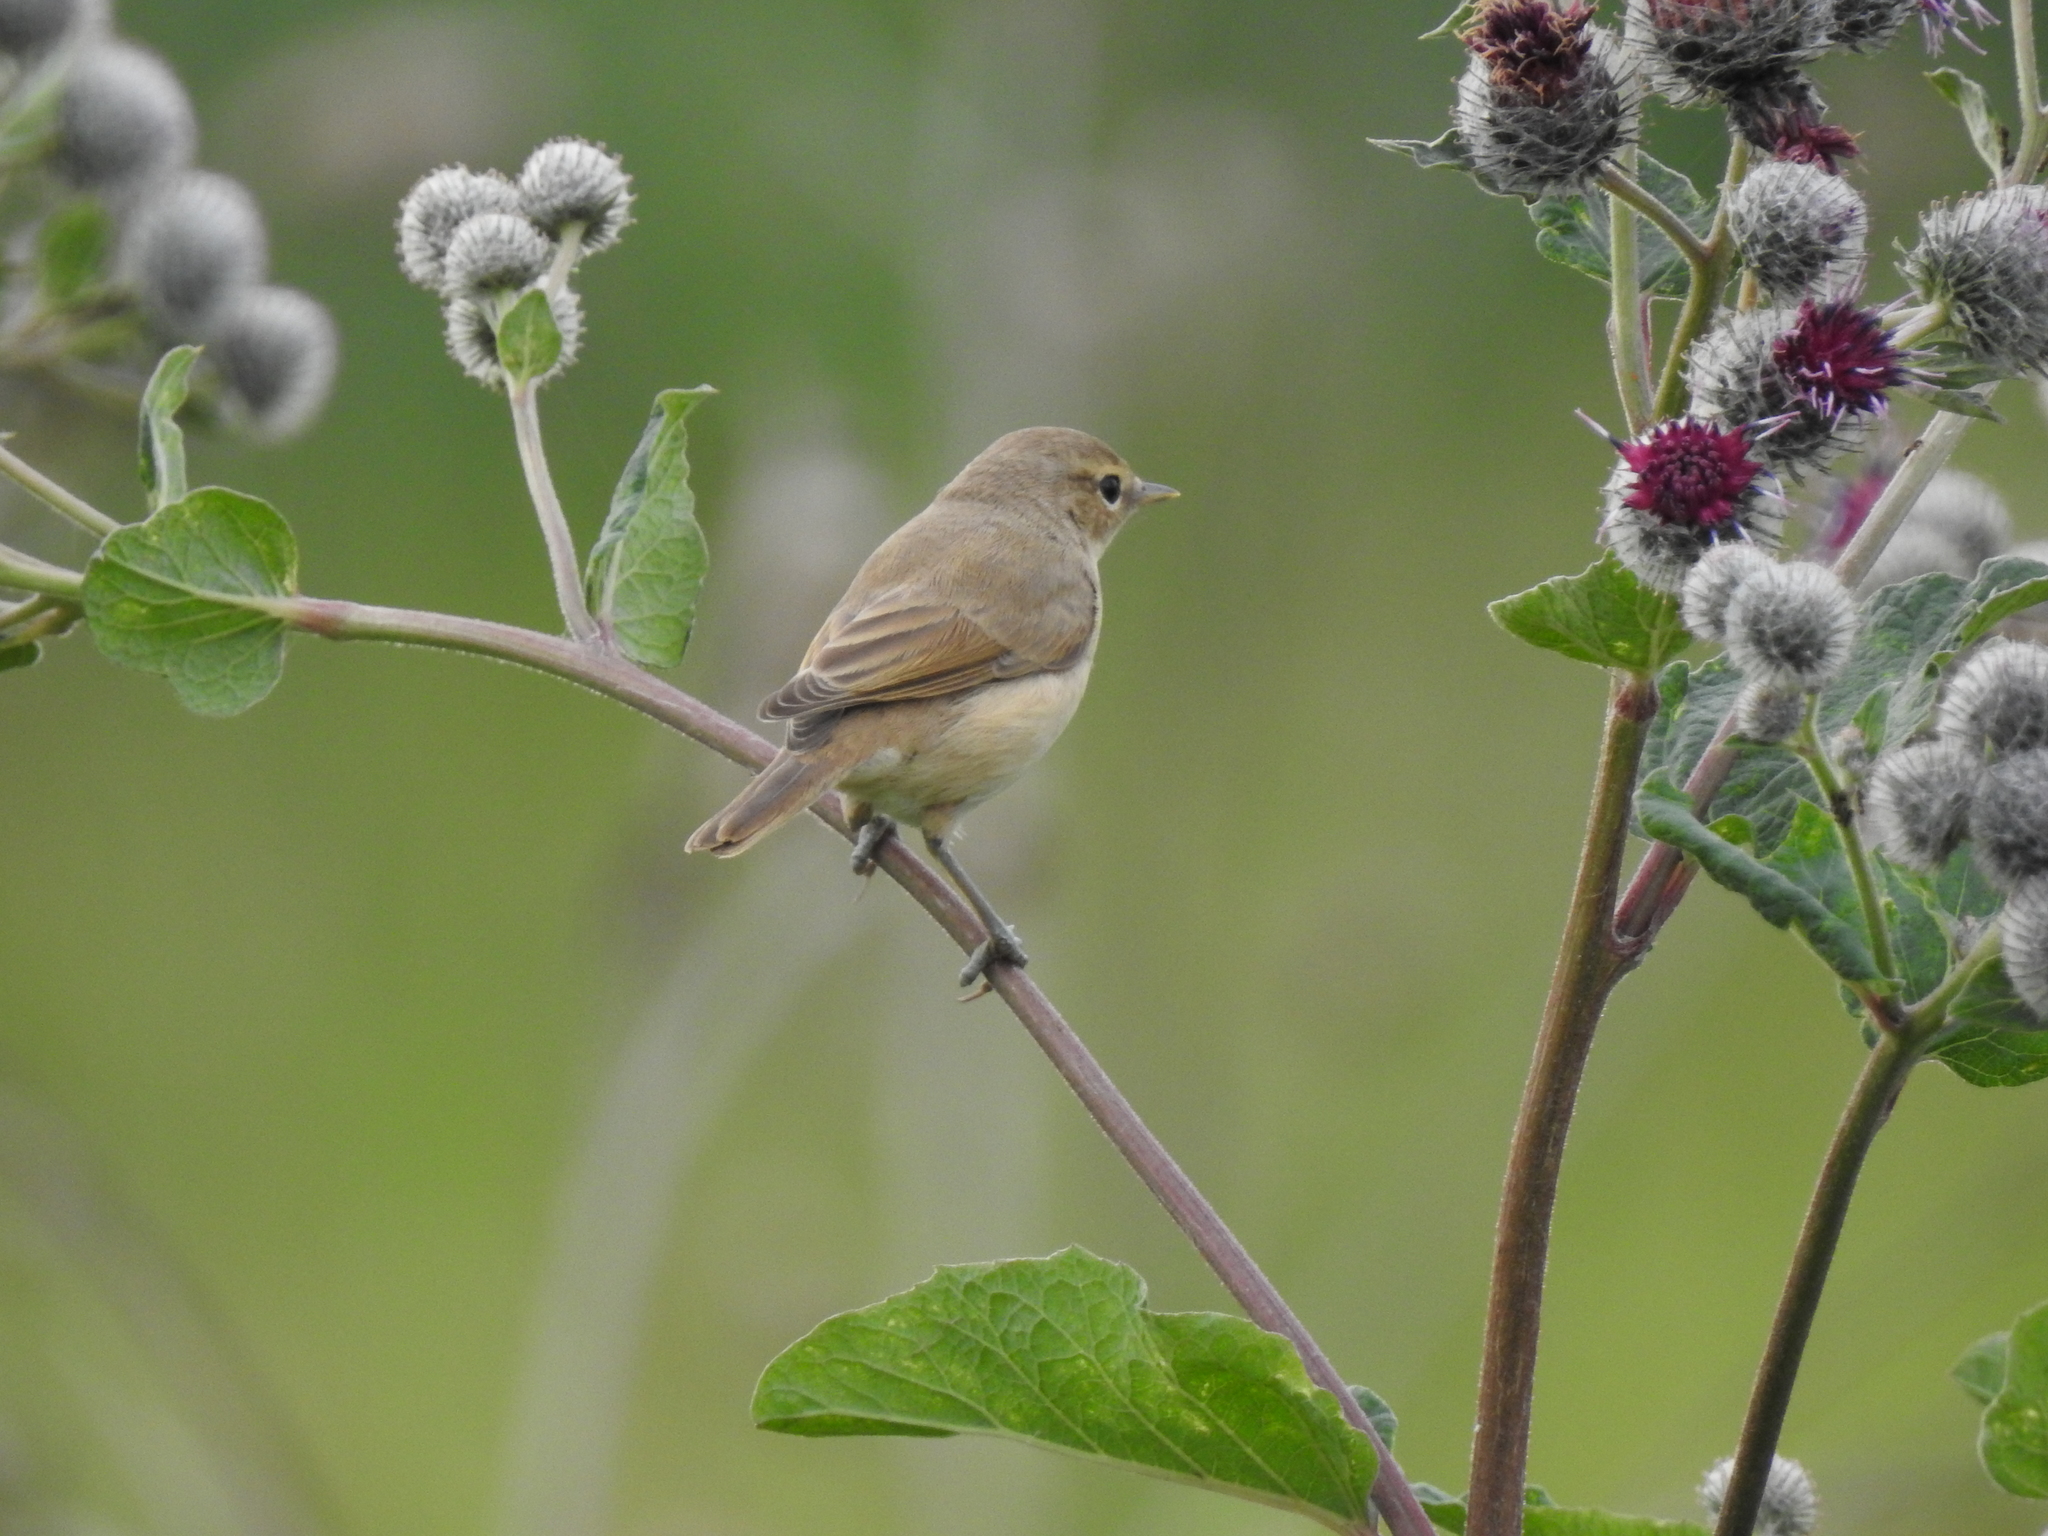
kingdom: Animalia
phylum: Chordata
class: Aves
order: Passeriformes
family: Acrocephalidae
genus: Acrocephalus
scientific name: Acrocephalus dumetorum
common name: Blyth's reed warbler
